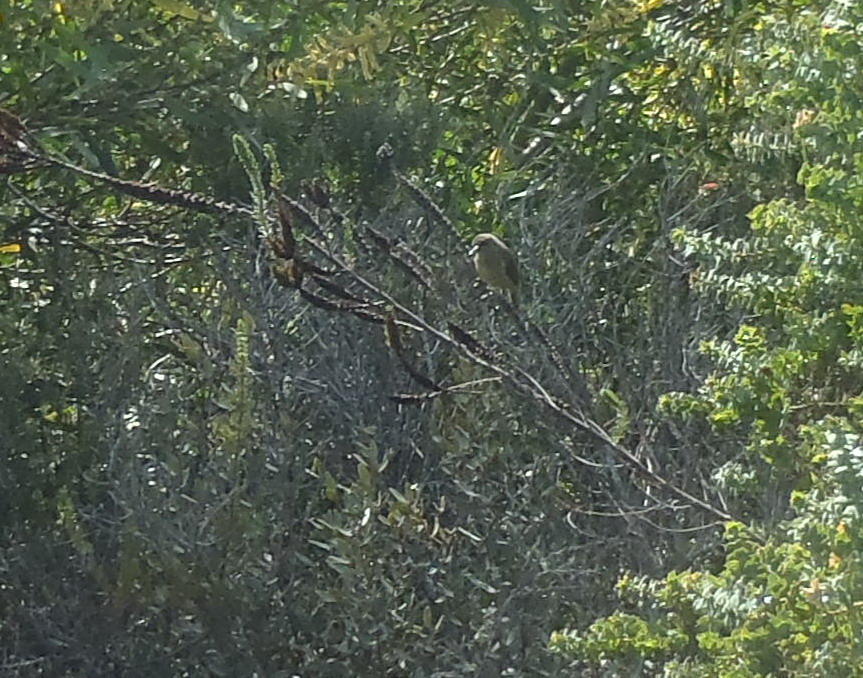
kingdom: Animalia
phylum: Chordata
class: Aves
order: Passeriformes
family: Pycnonotidae
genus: Andropadus
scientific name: Andropadus importunus
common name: Sombre greenbul
